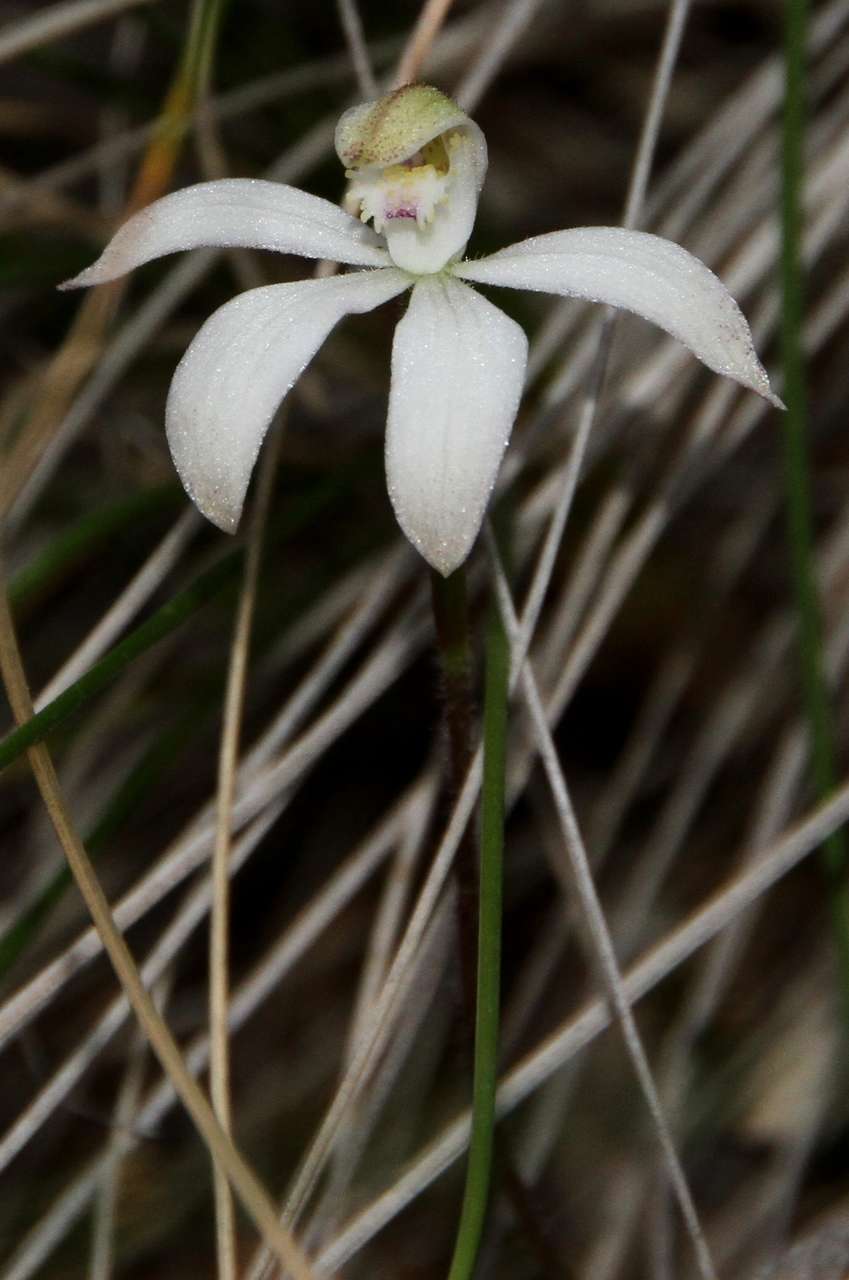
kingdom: Plantae
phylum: Tracheophyta
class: Liliopsida
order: Asparagales
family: Orchidaceae
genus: Caladenia
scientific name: Caladenia dimorpha
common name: Spicy caps
